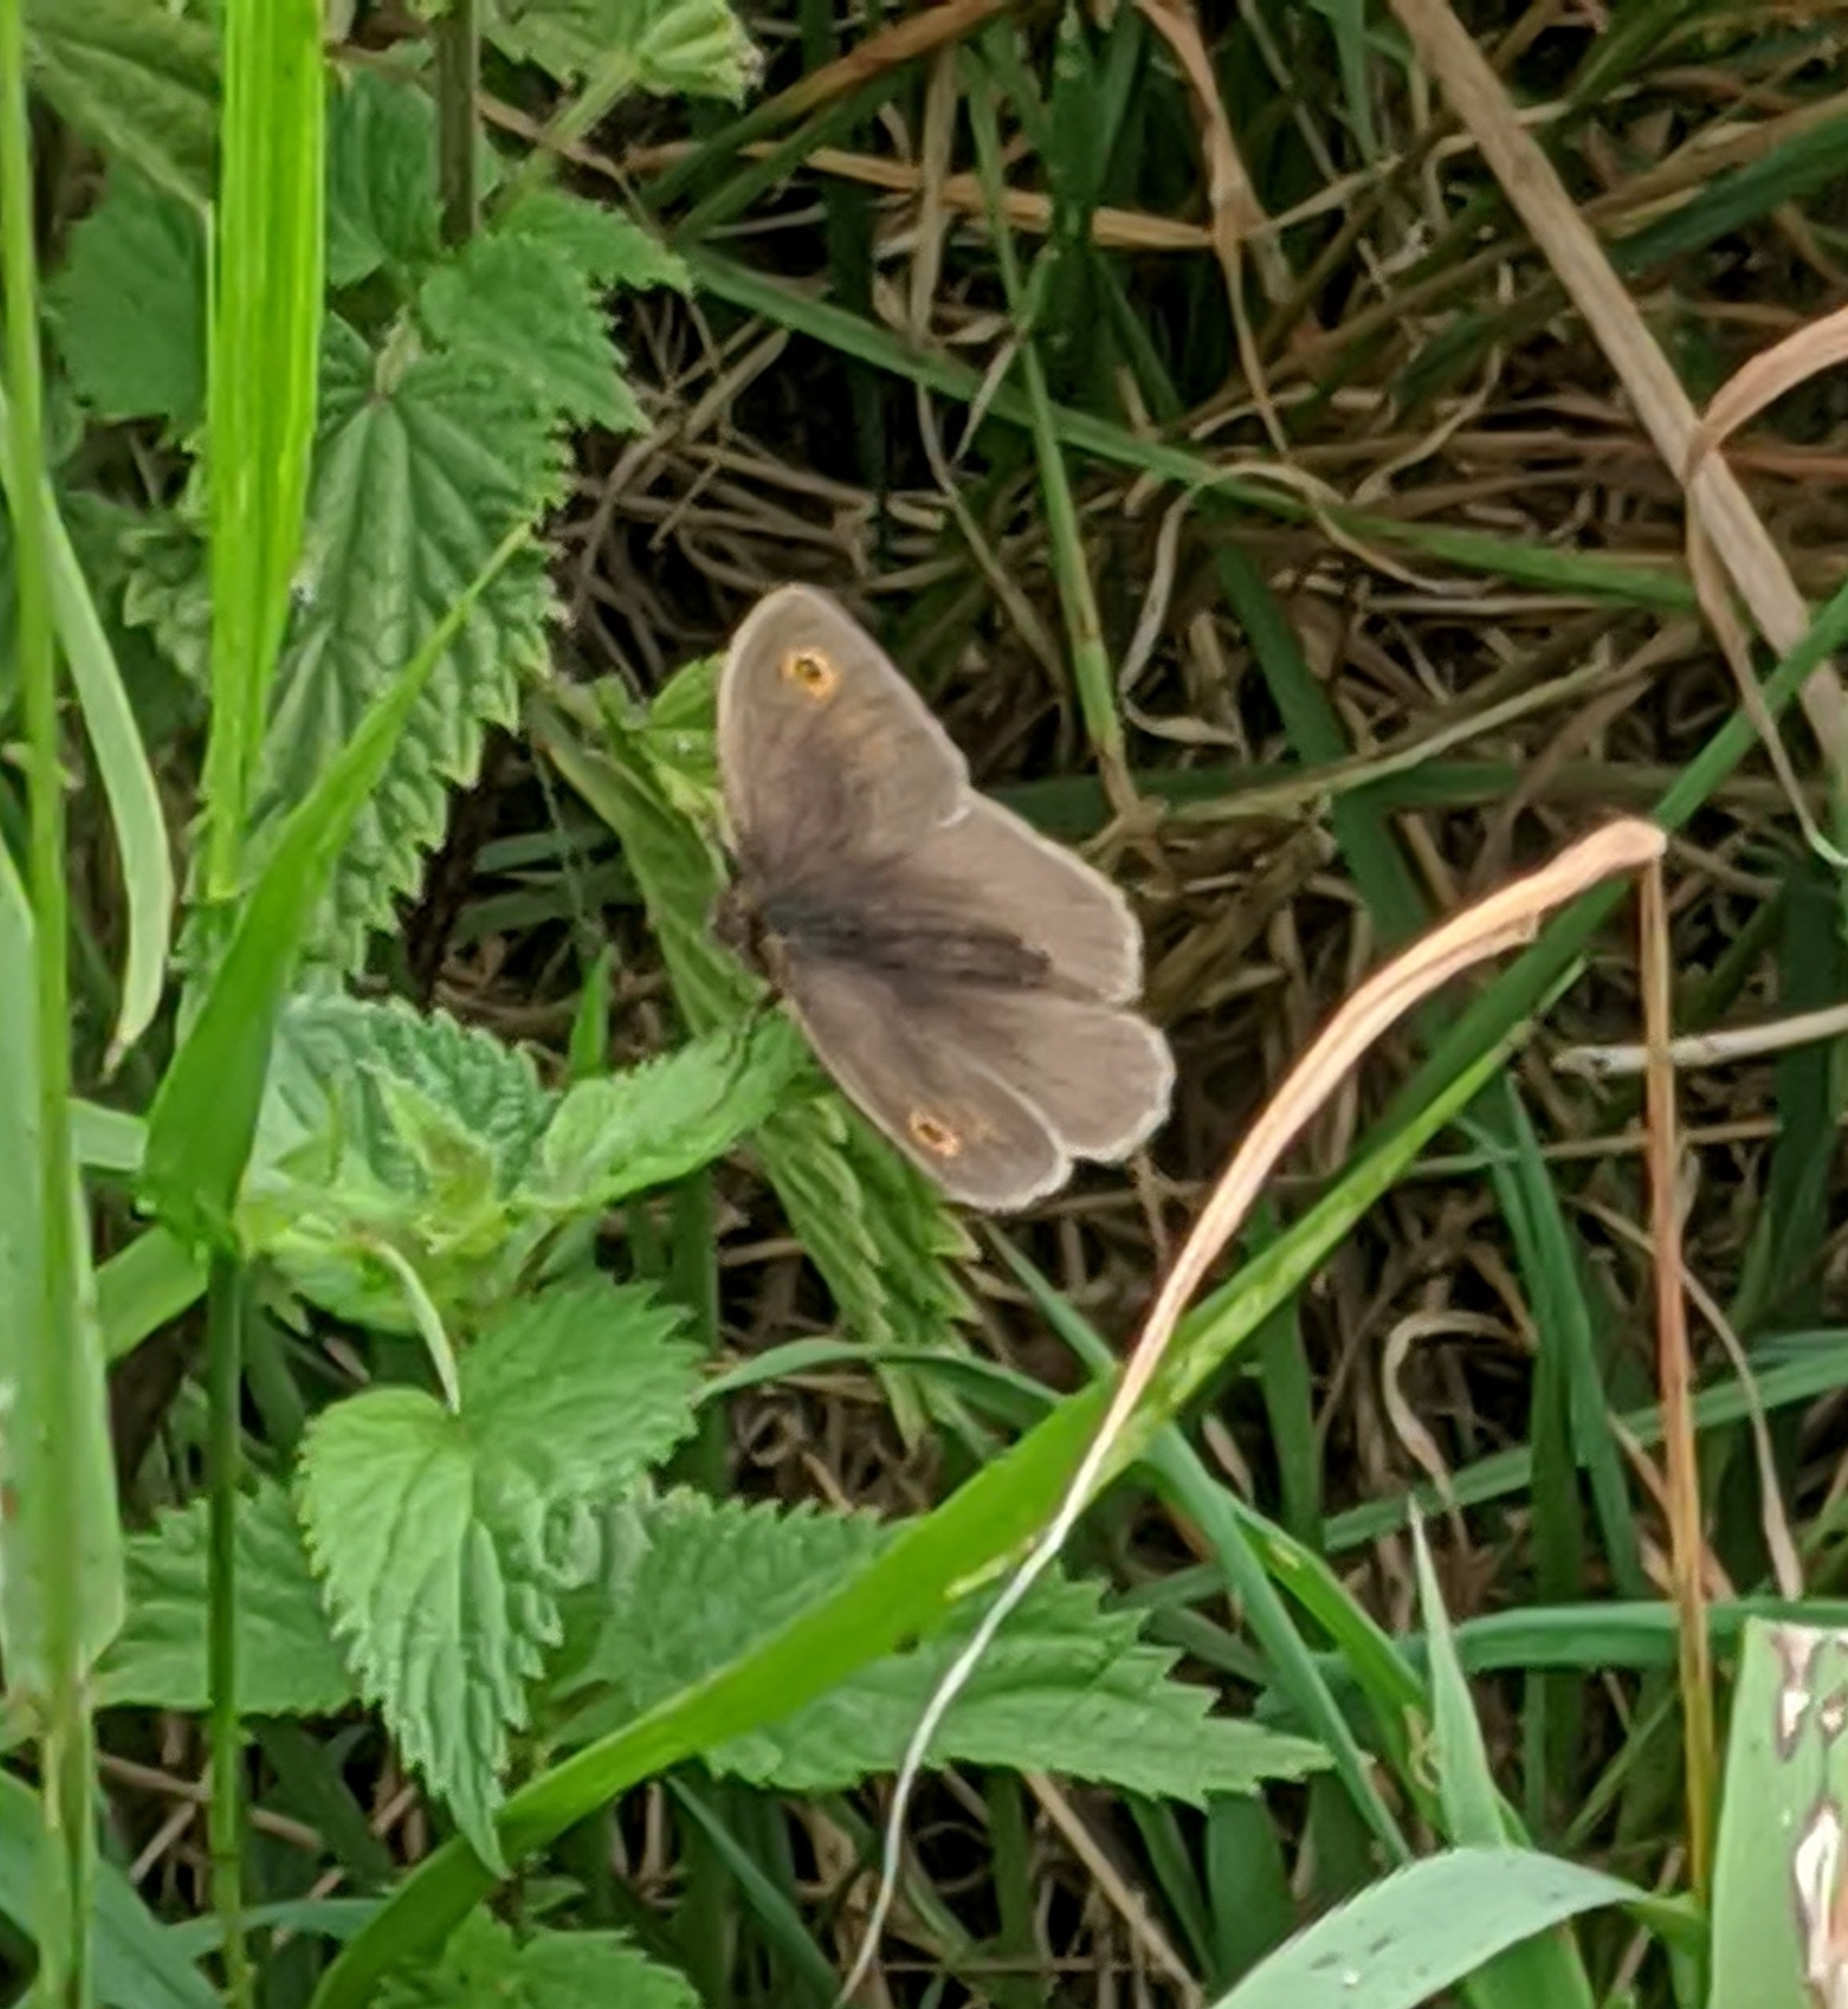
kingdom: Animalia
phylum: Arthropoda
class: Insecta
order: Lepidoptera
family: Nymphalidae
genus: Maniola
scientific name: Maniola jurtina
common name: Meadow brown
